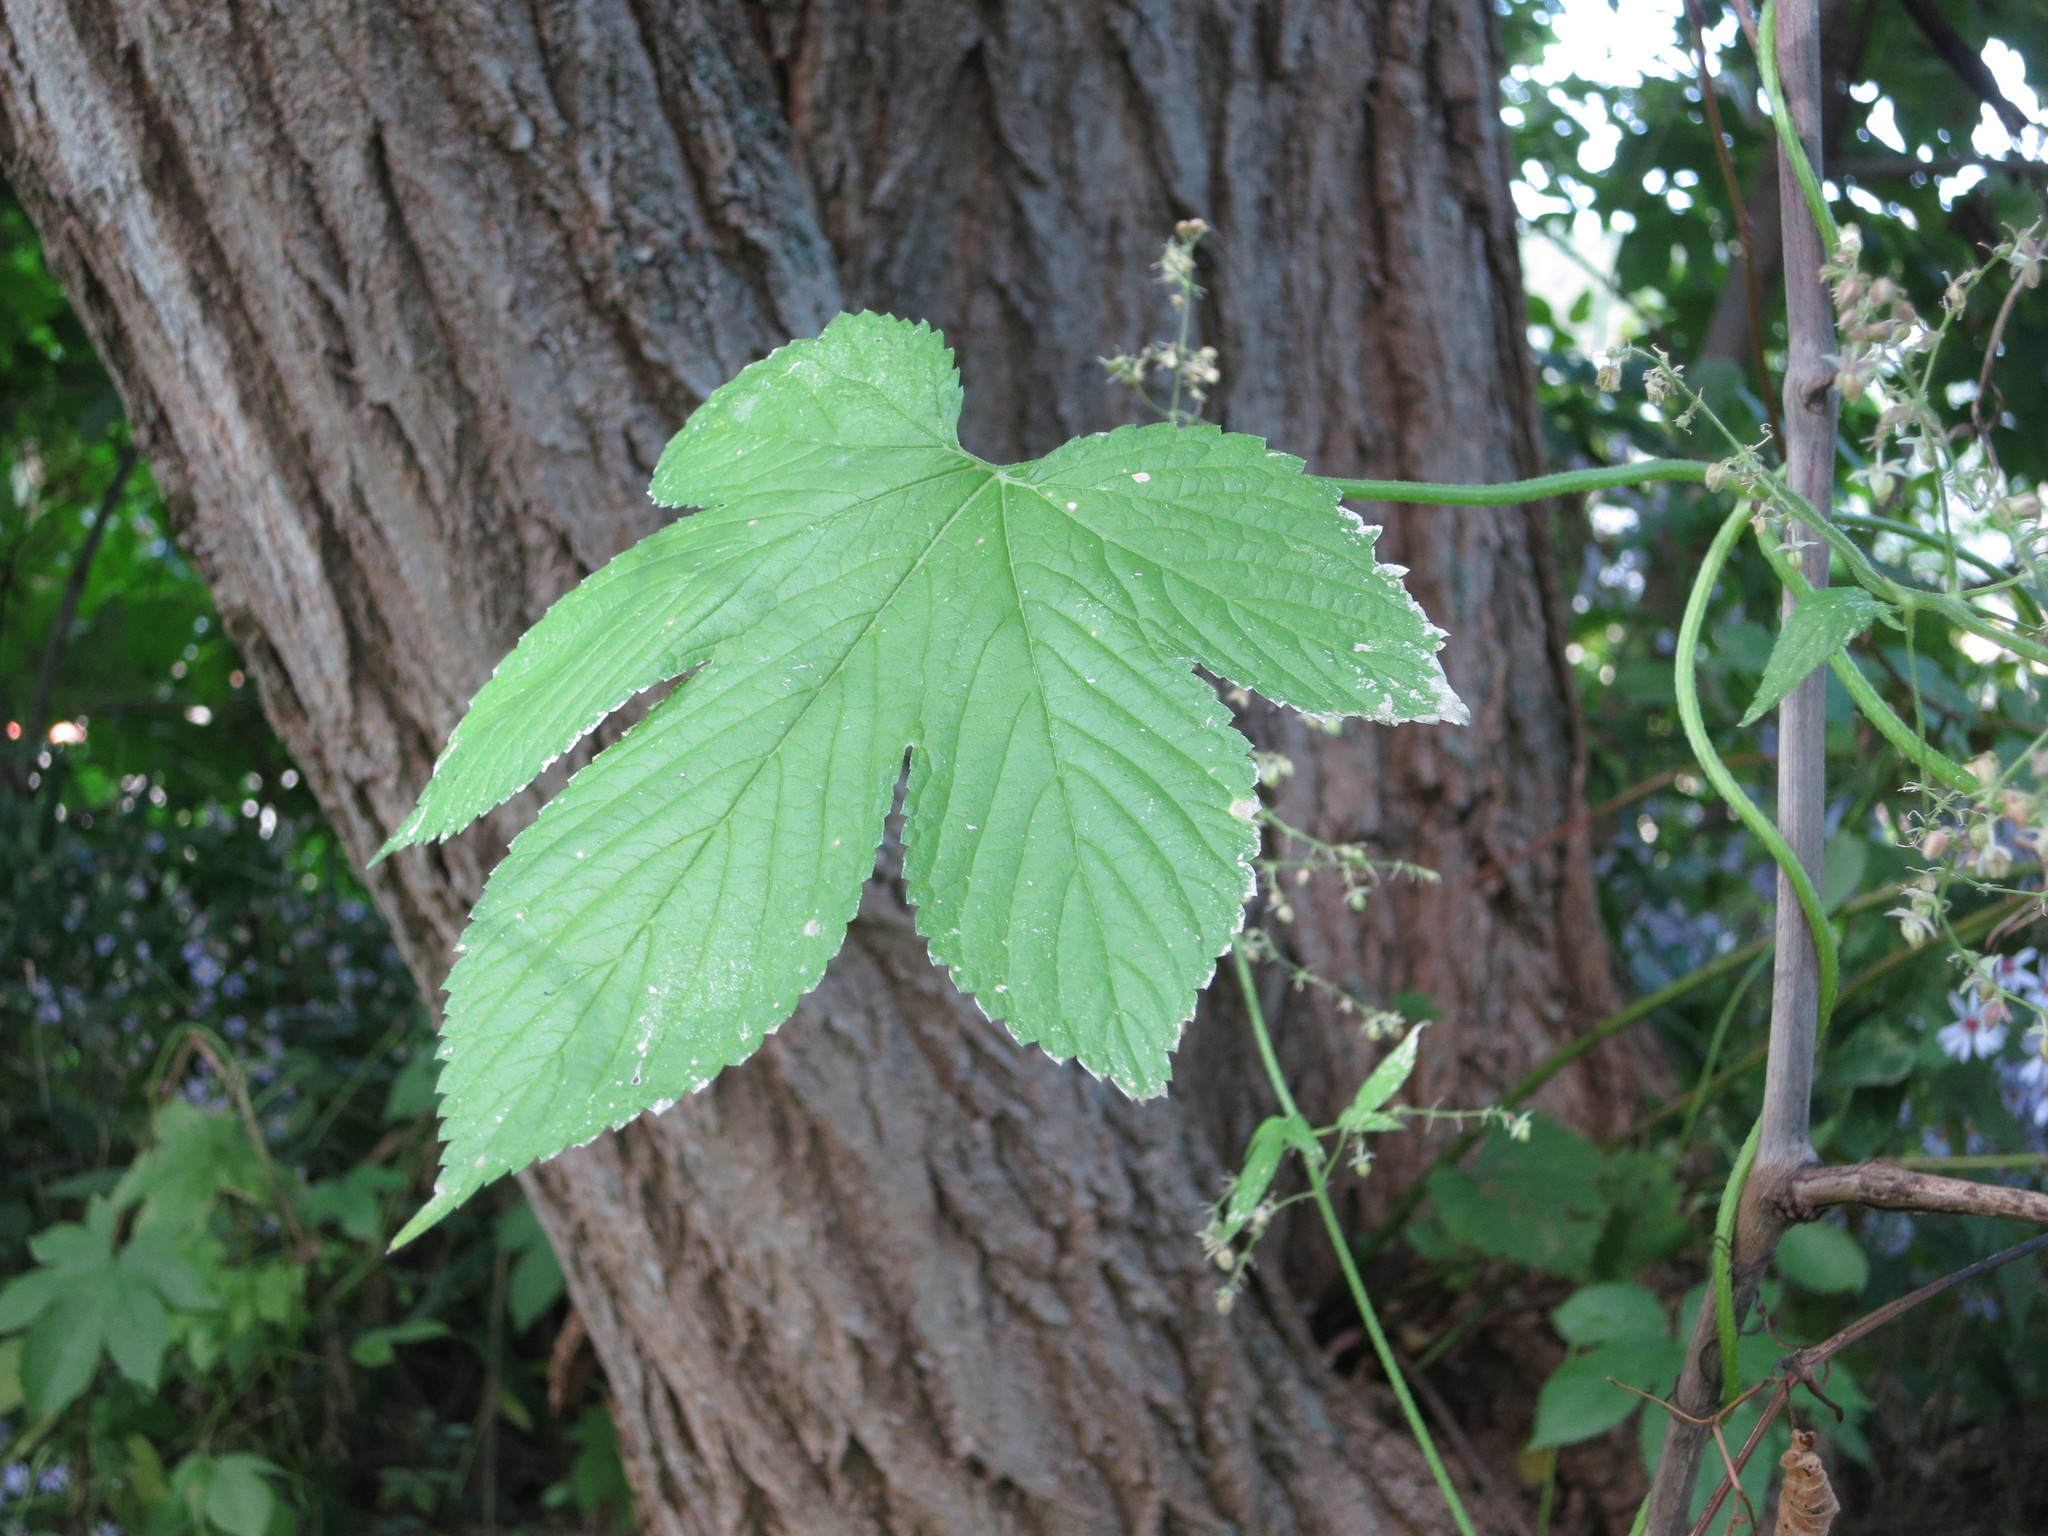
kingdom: Plantae
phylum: Tracheophyta
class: Magnoliopsida
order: Rosales
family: Cannabaceae
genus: Humulus
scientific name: Humulus scandens
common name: Japanese hop
